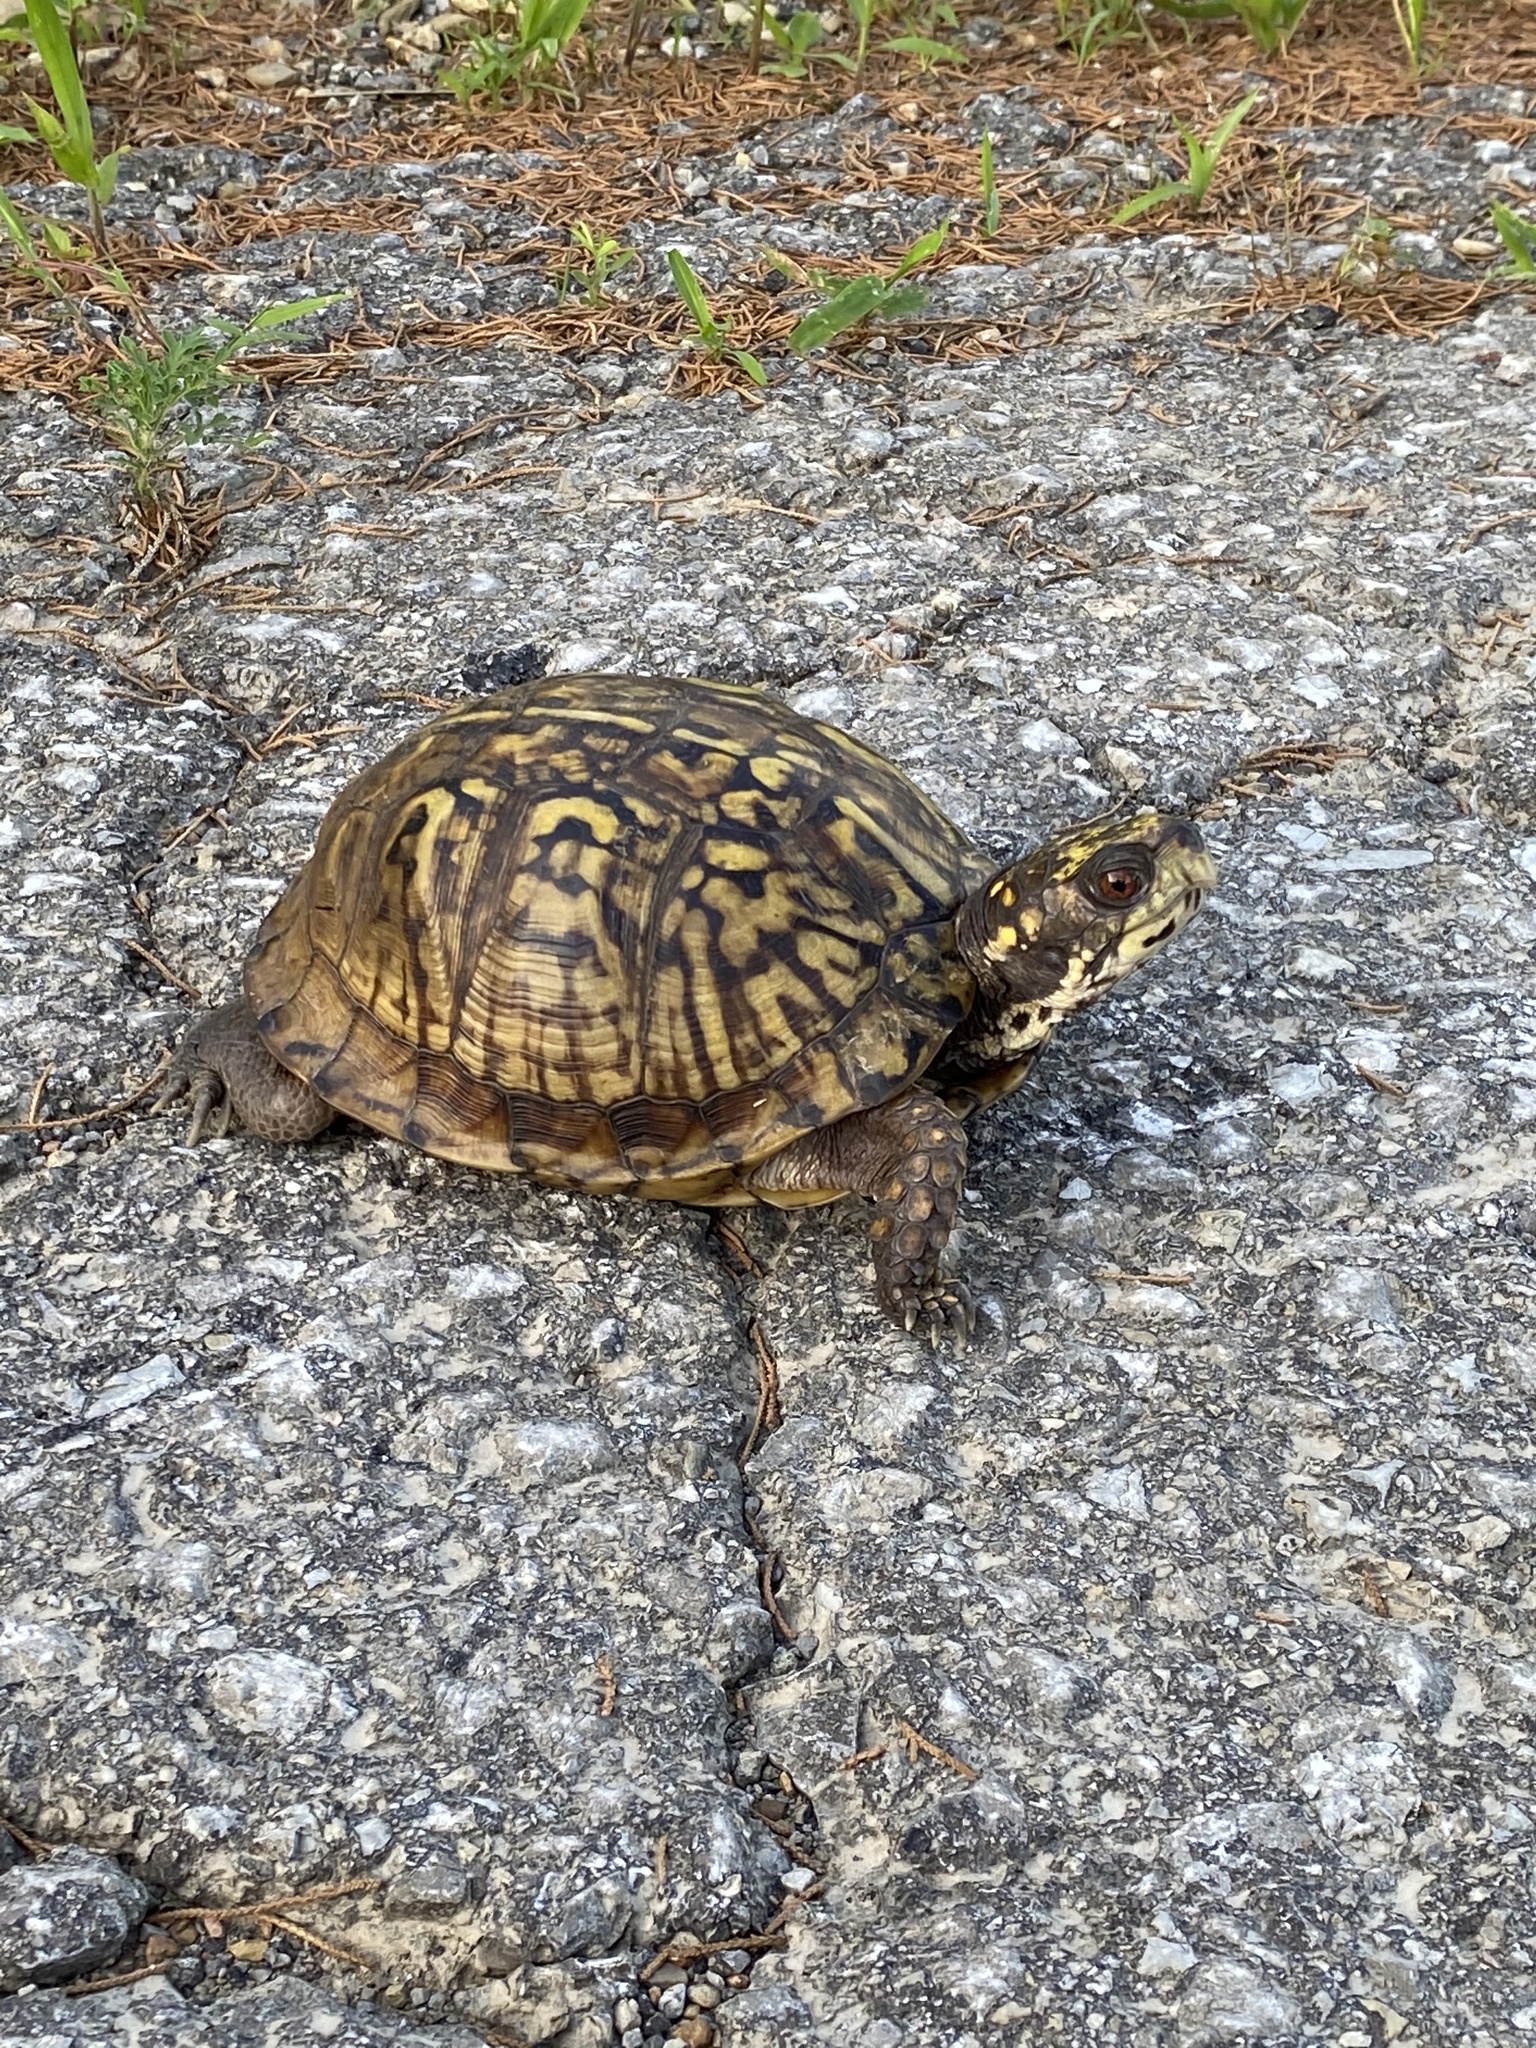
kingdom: Animalia
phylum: Chordata
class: Testudines
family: Emydidae
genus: Terrapene
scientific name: Terrapene carolina
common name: Common box turtle
